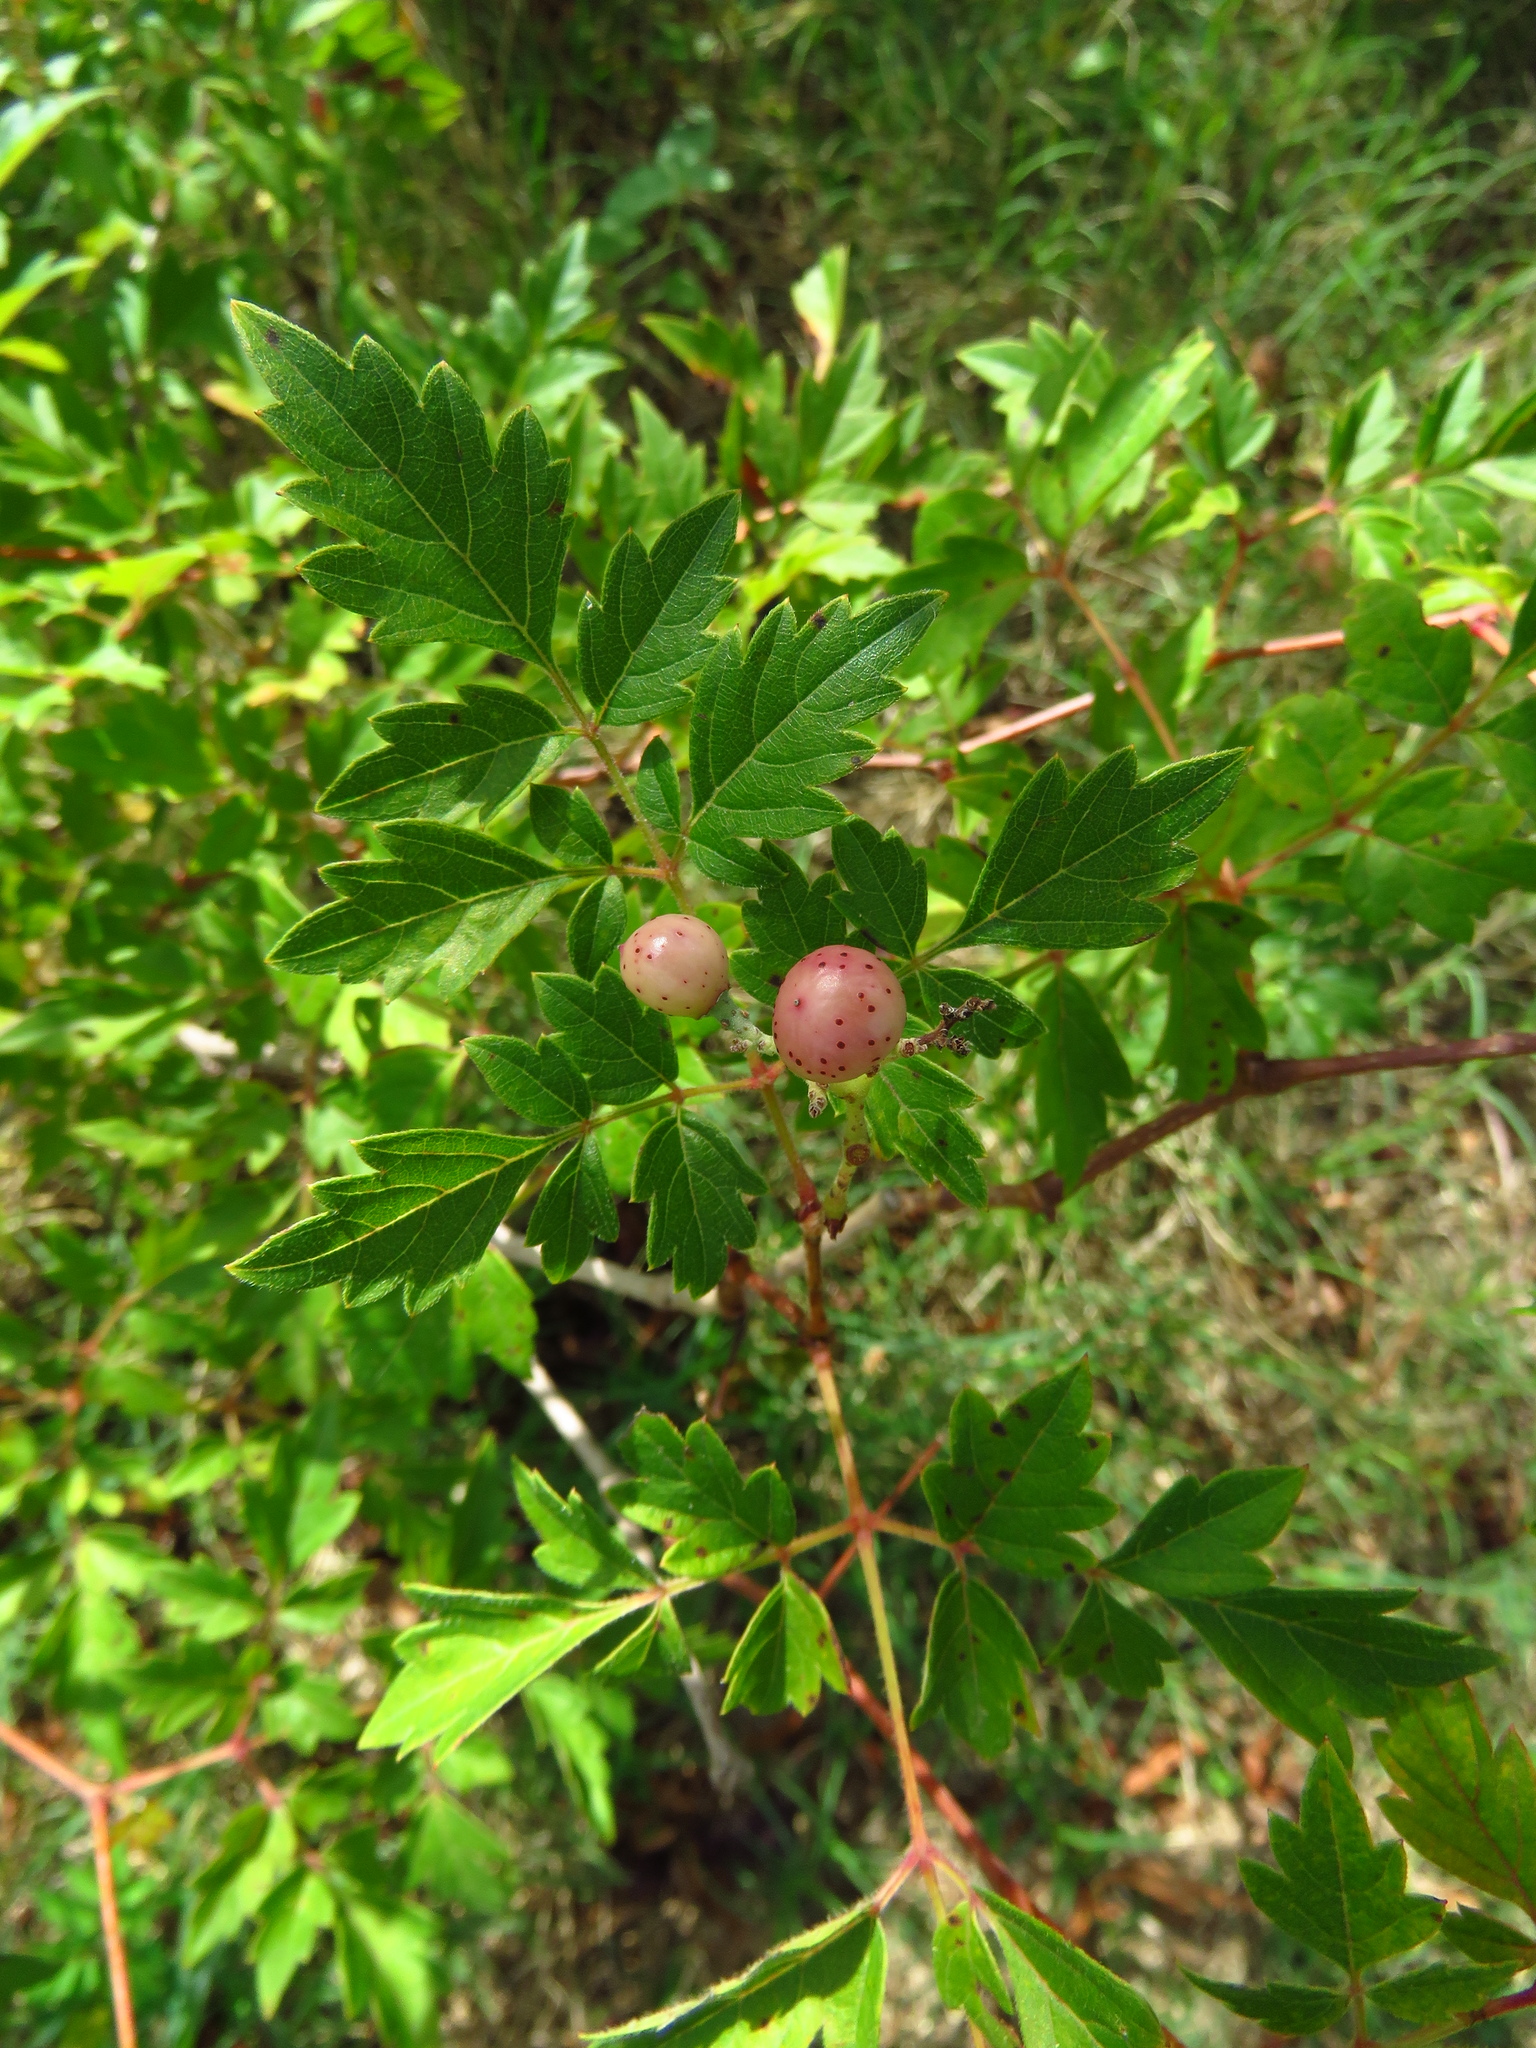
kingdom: Plantae
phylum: Tracheophyta
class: Magnoliopsida
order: Vitales
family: Vitaceae
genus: Nekemias
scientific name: Nekemias arborea
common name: Peppervine
